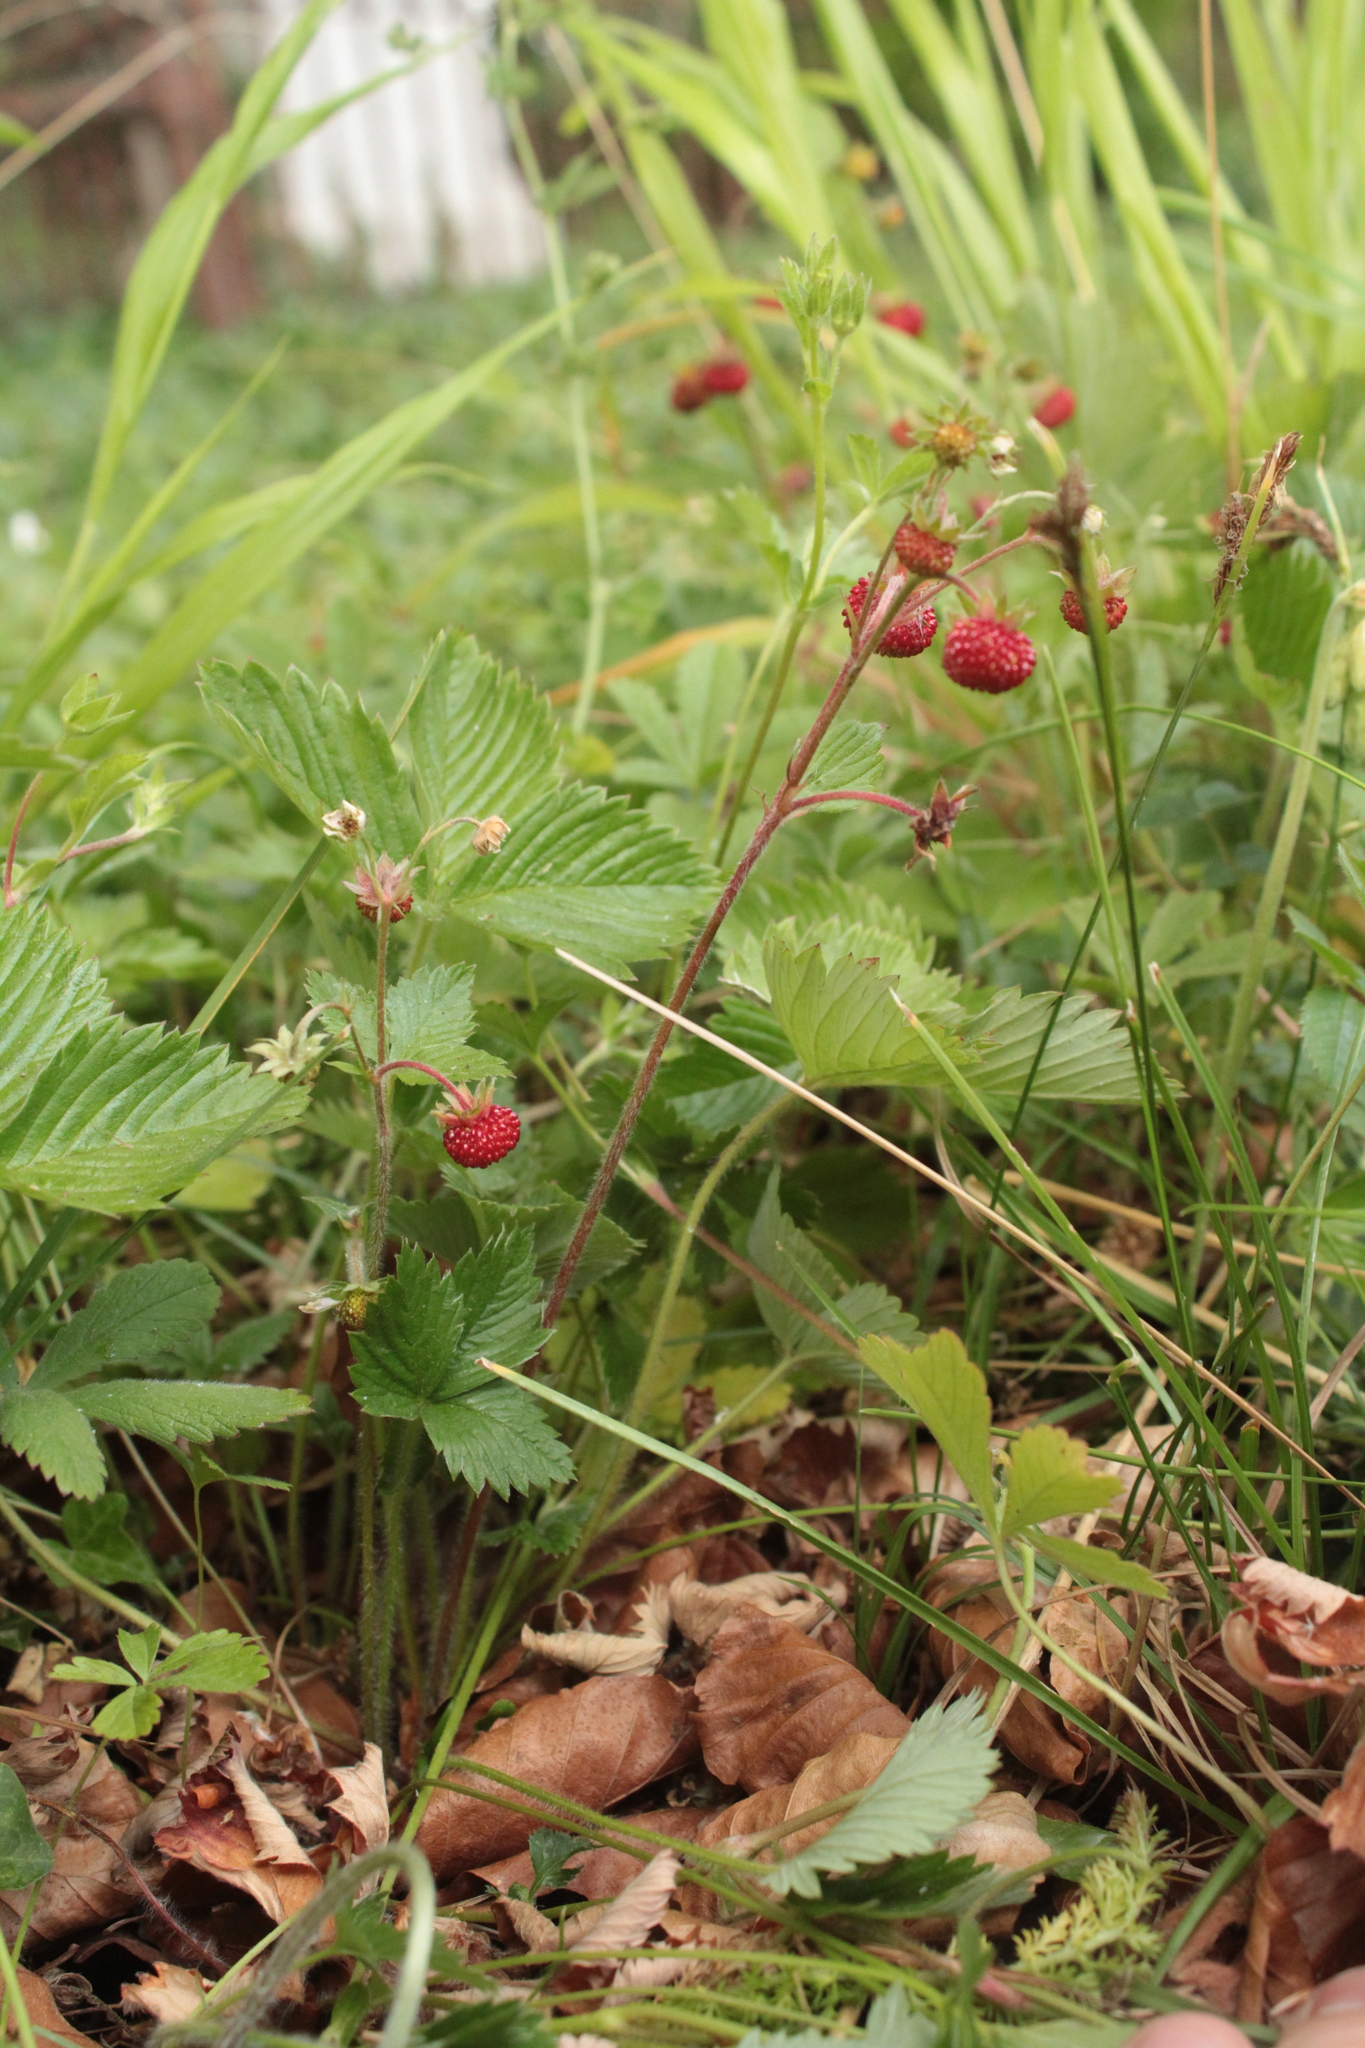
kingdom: Plantae
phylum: Tracheophyta
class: Magnoliopsida
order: Rosales
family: Rosaceae
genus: Fragaria
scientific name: Fragaria vesca
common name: Wild strawberry
